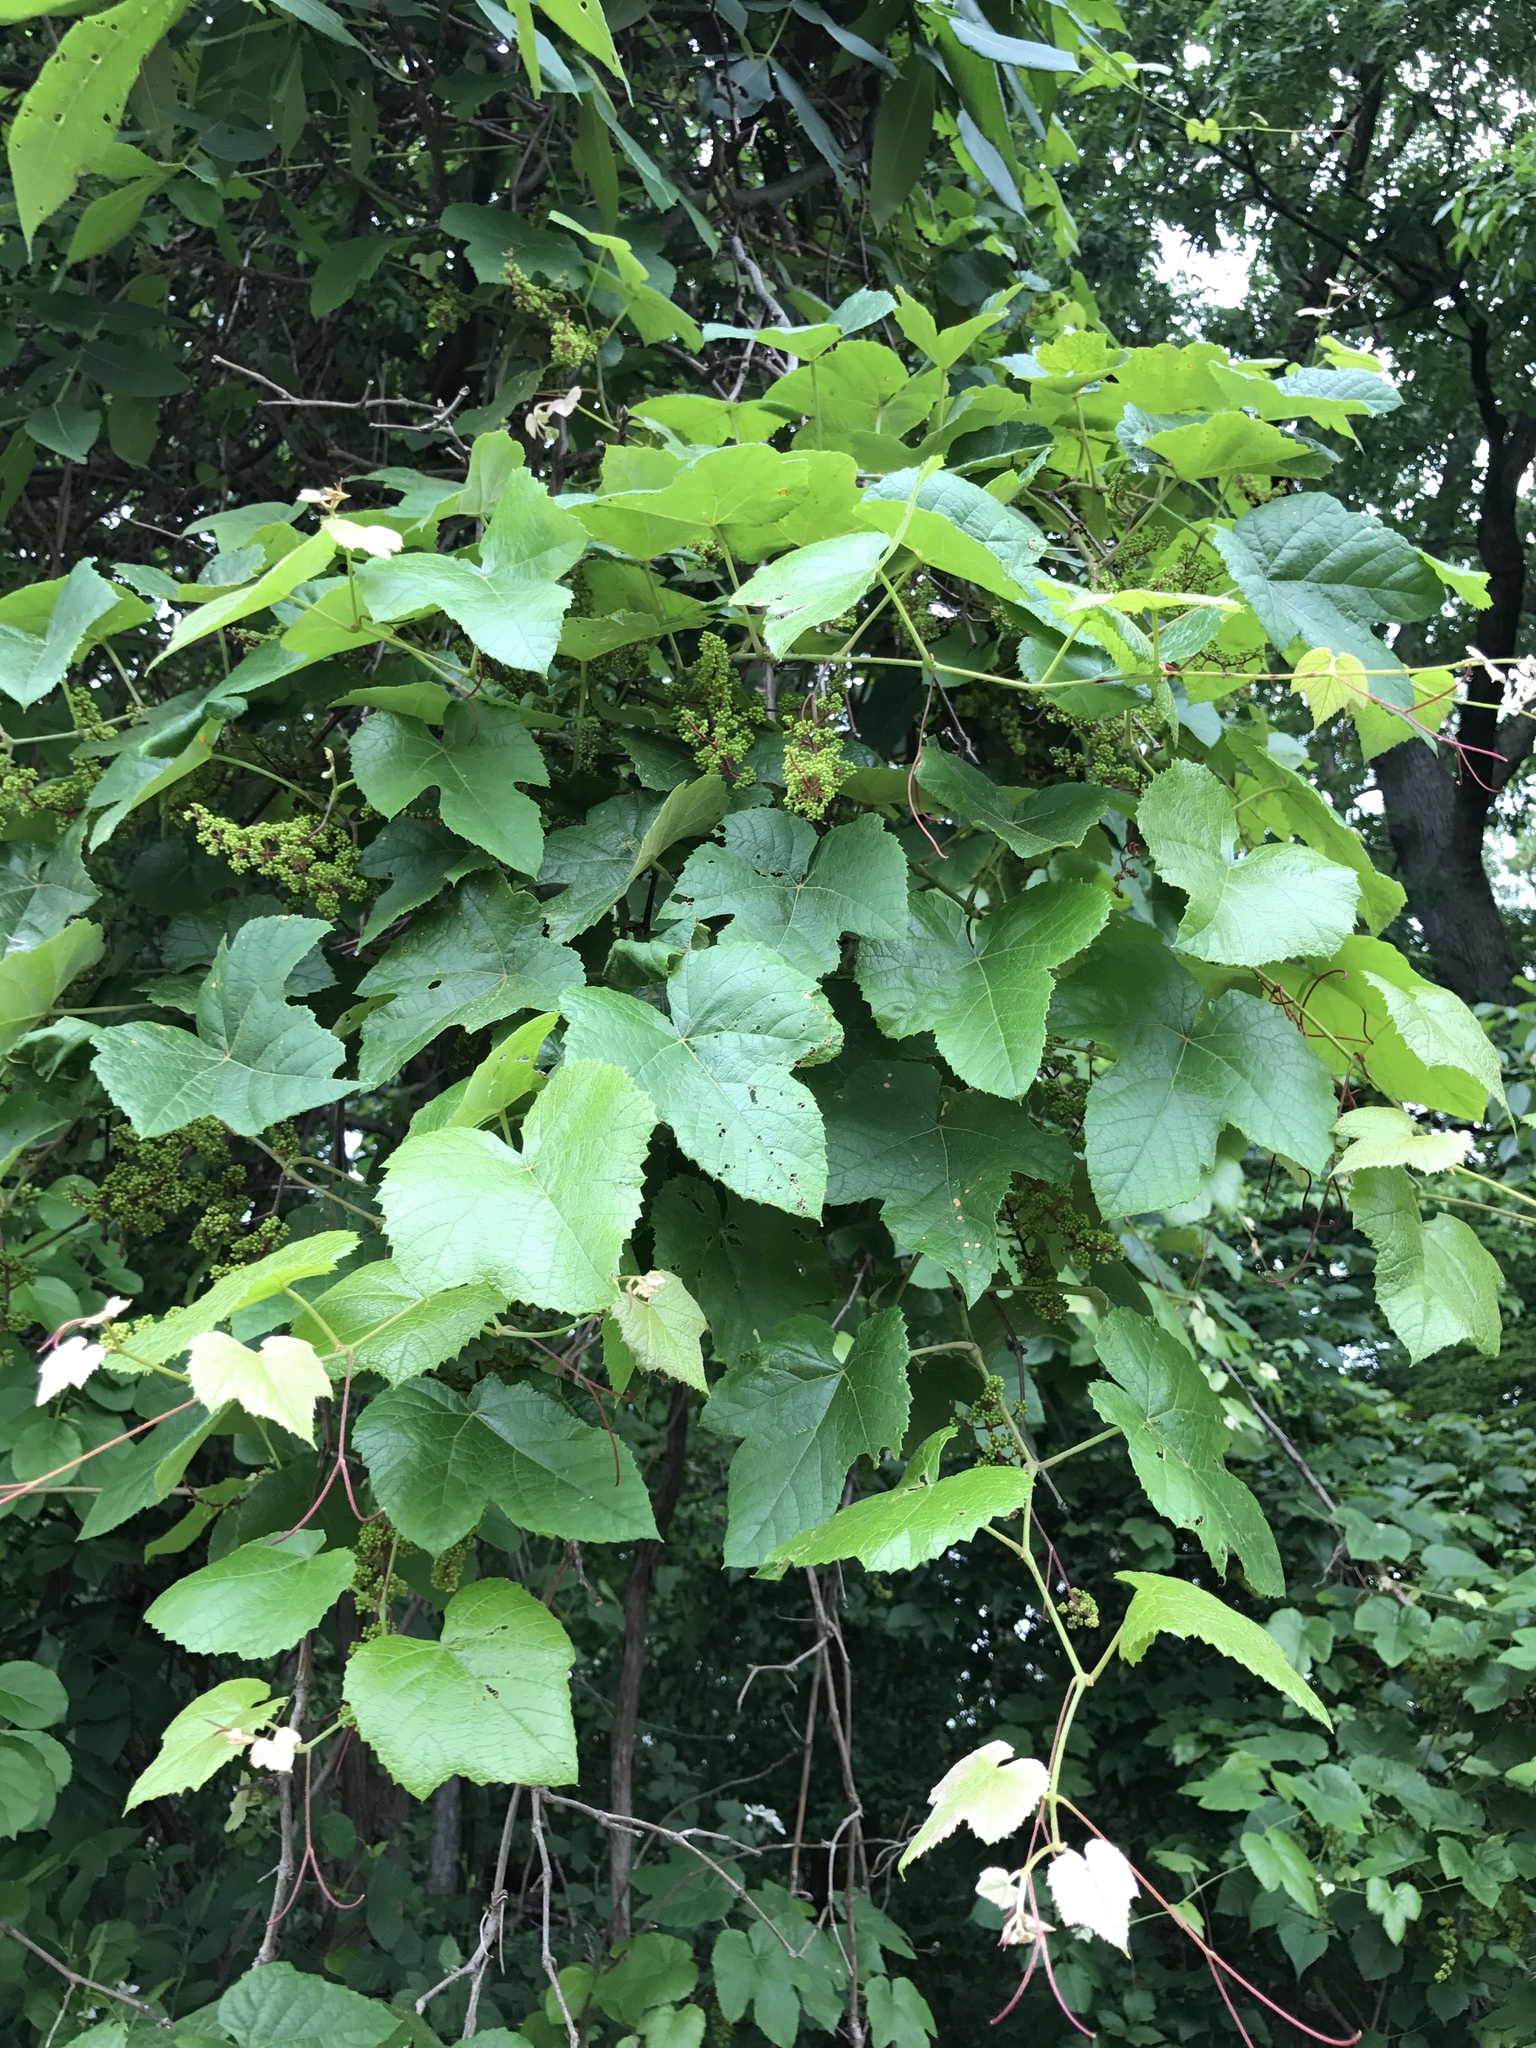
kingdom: Plantae
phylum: Tracheophyta
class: Magnoliopsida
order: Vitales
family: Vitaceae
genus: Vitis
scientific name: Vitis aestivalis
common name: Pigeon grape
